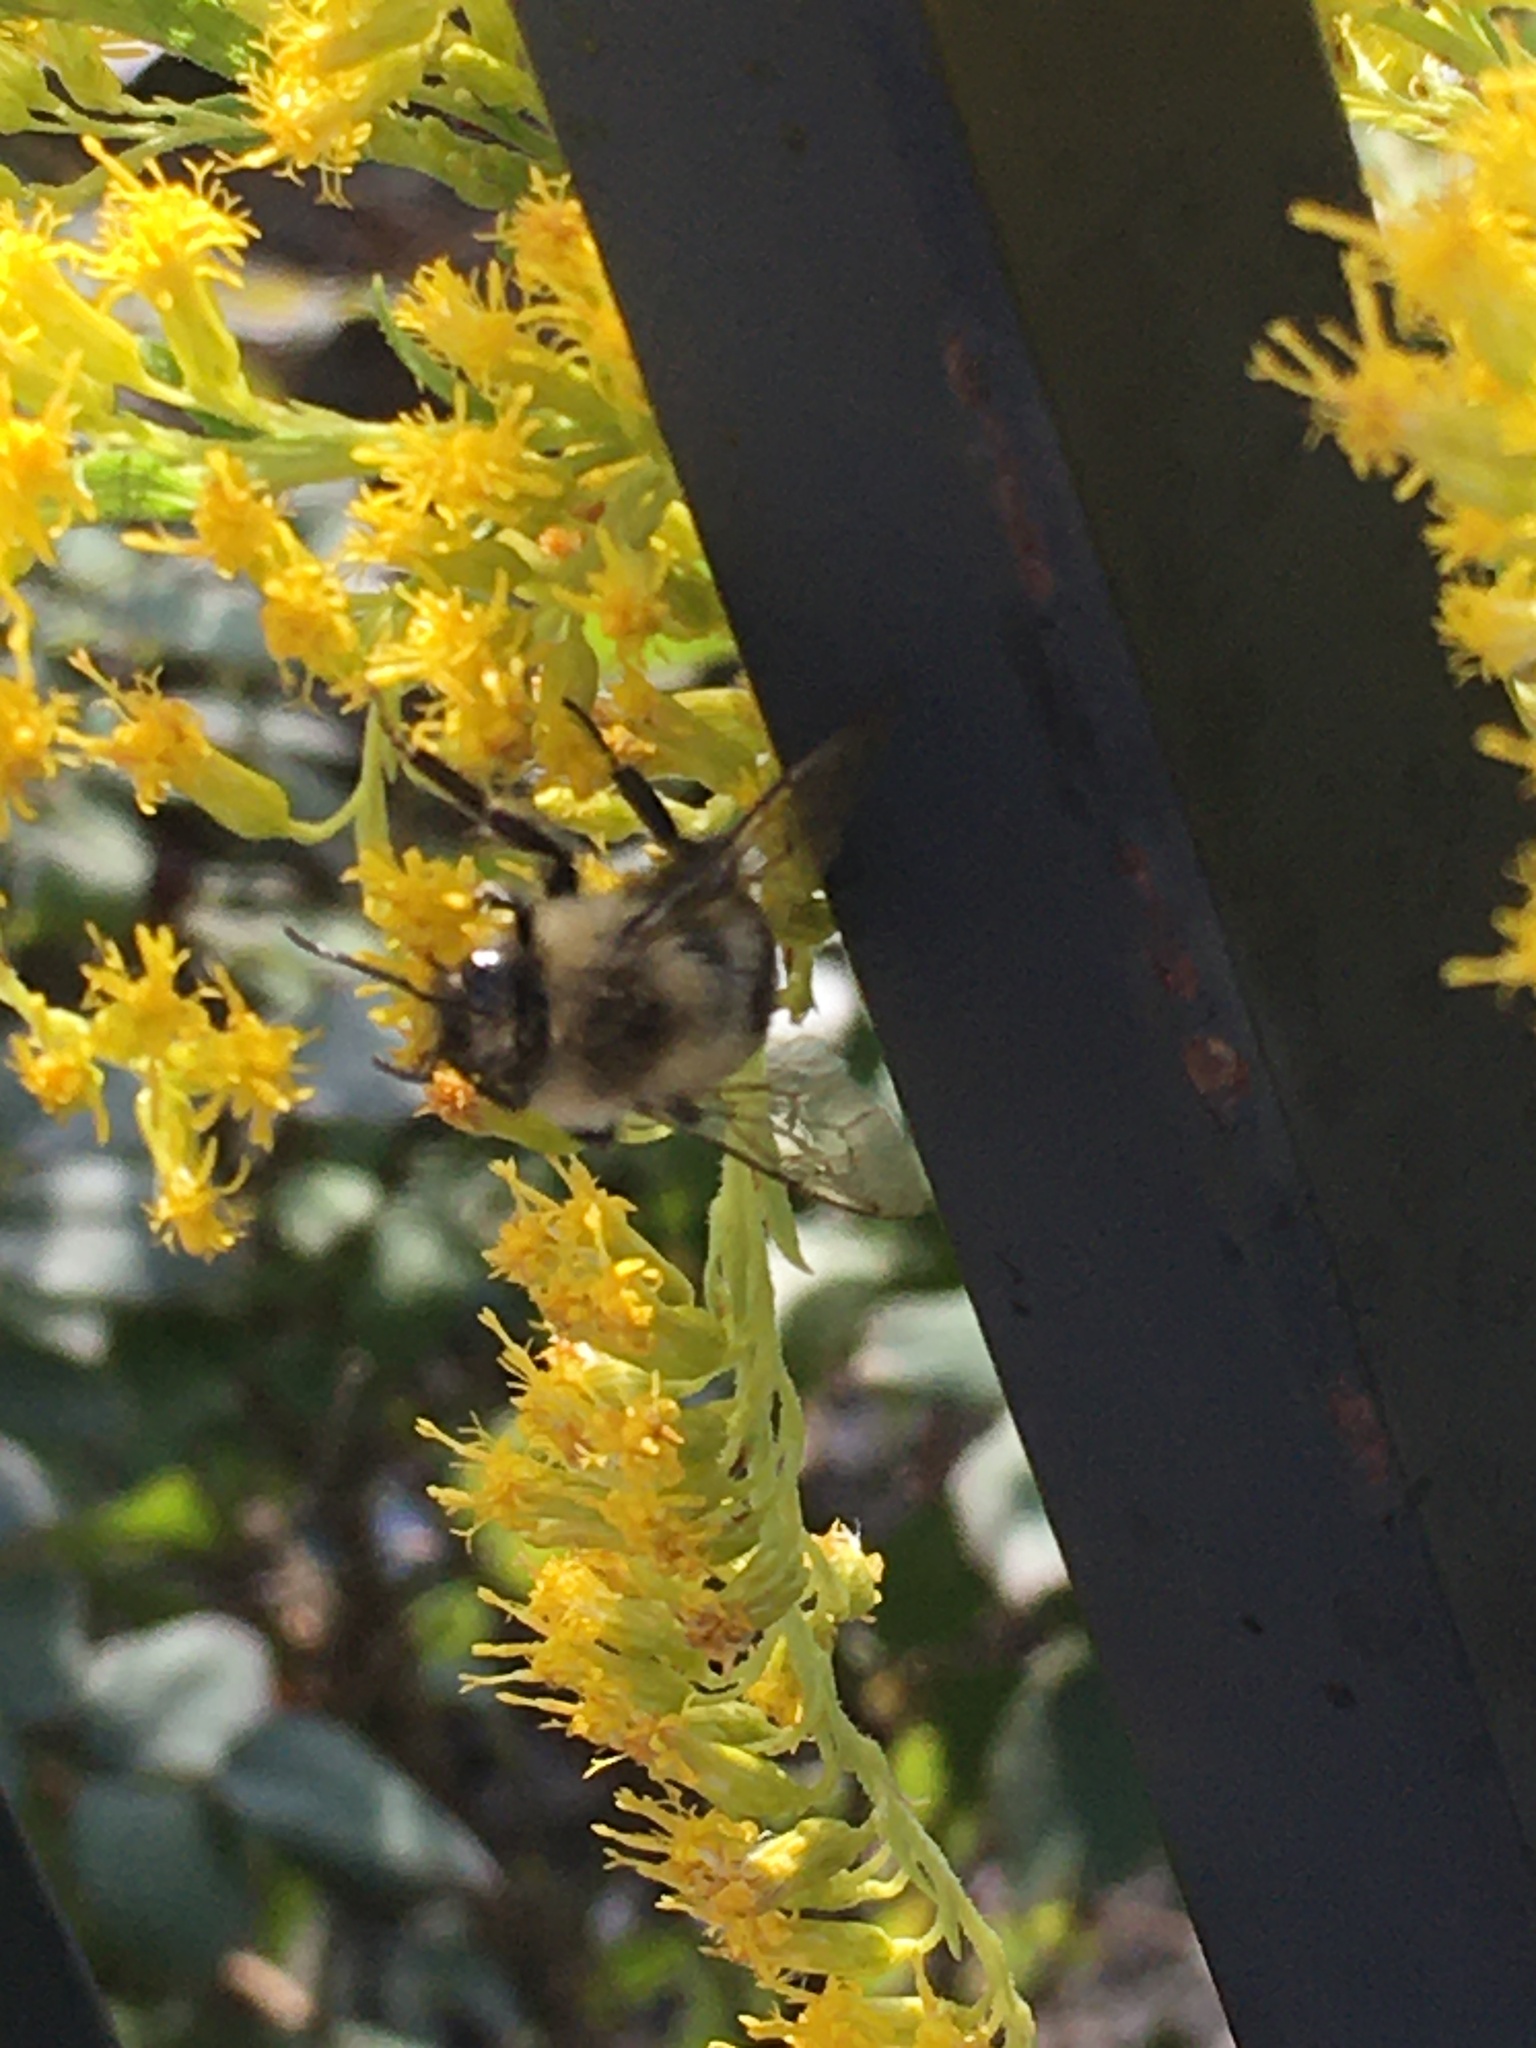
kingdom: Animalia
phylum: Arthropoda
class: Insecta
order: Hymenoptera
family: Apidae
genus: Bombus
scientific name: Bombus impatiens
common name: Common eastern bumble bee
